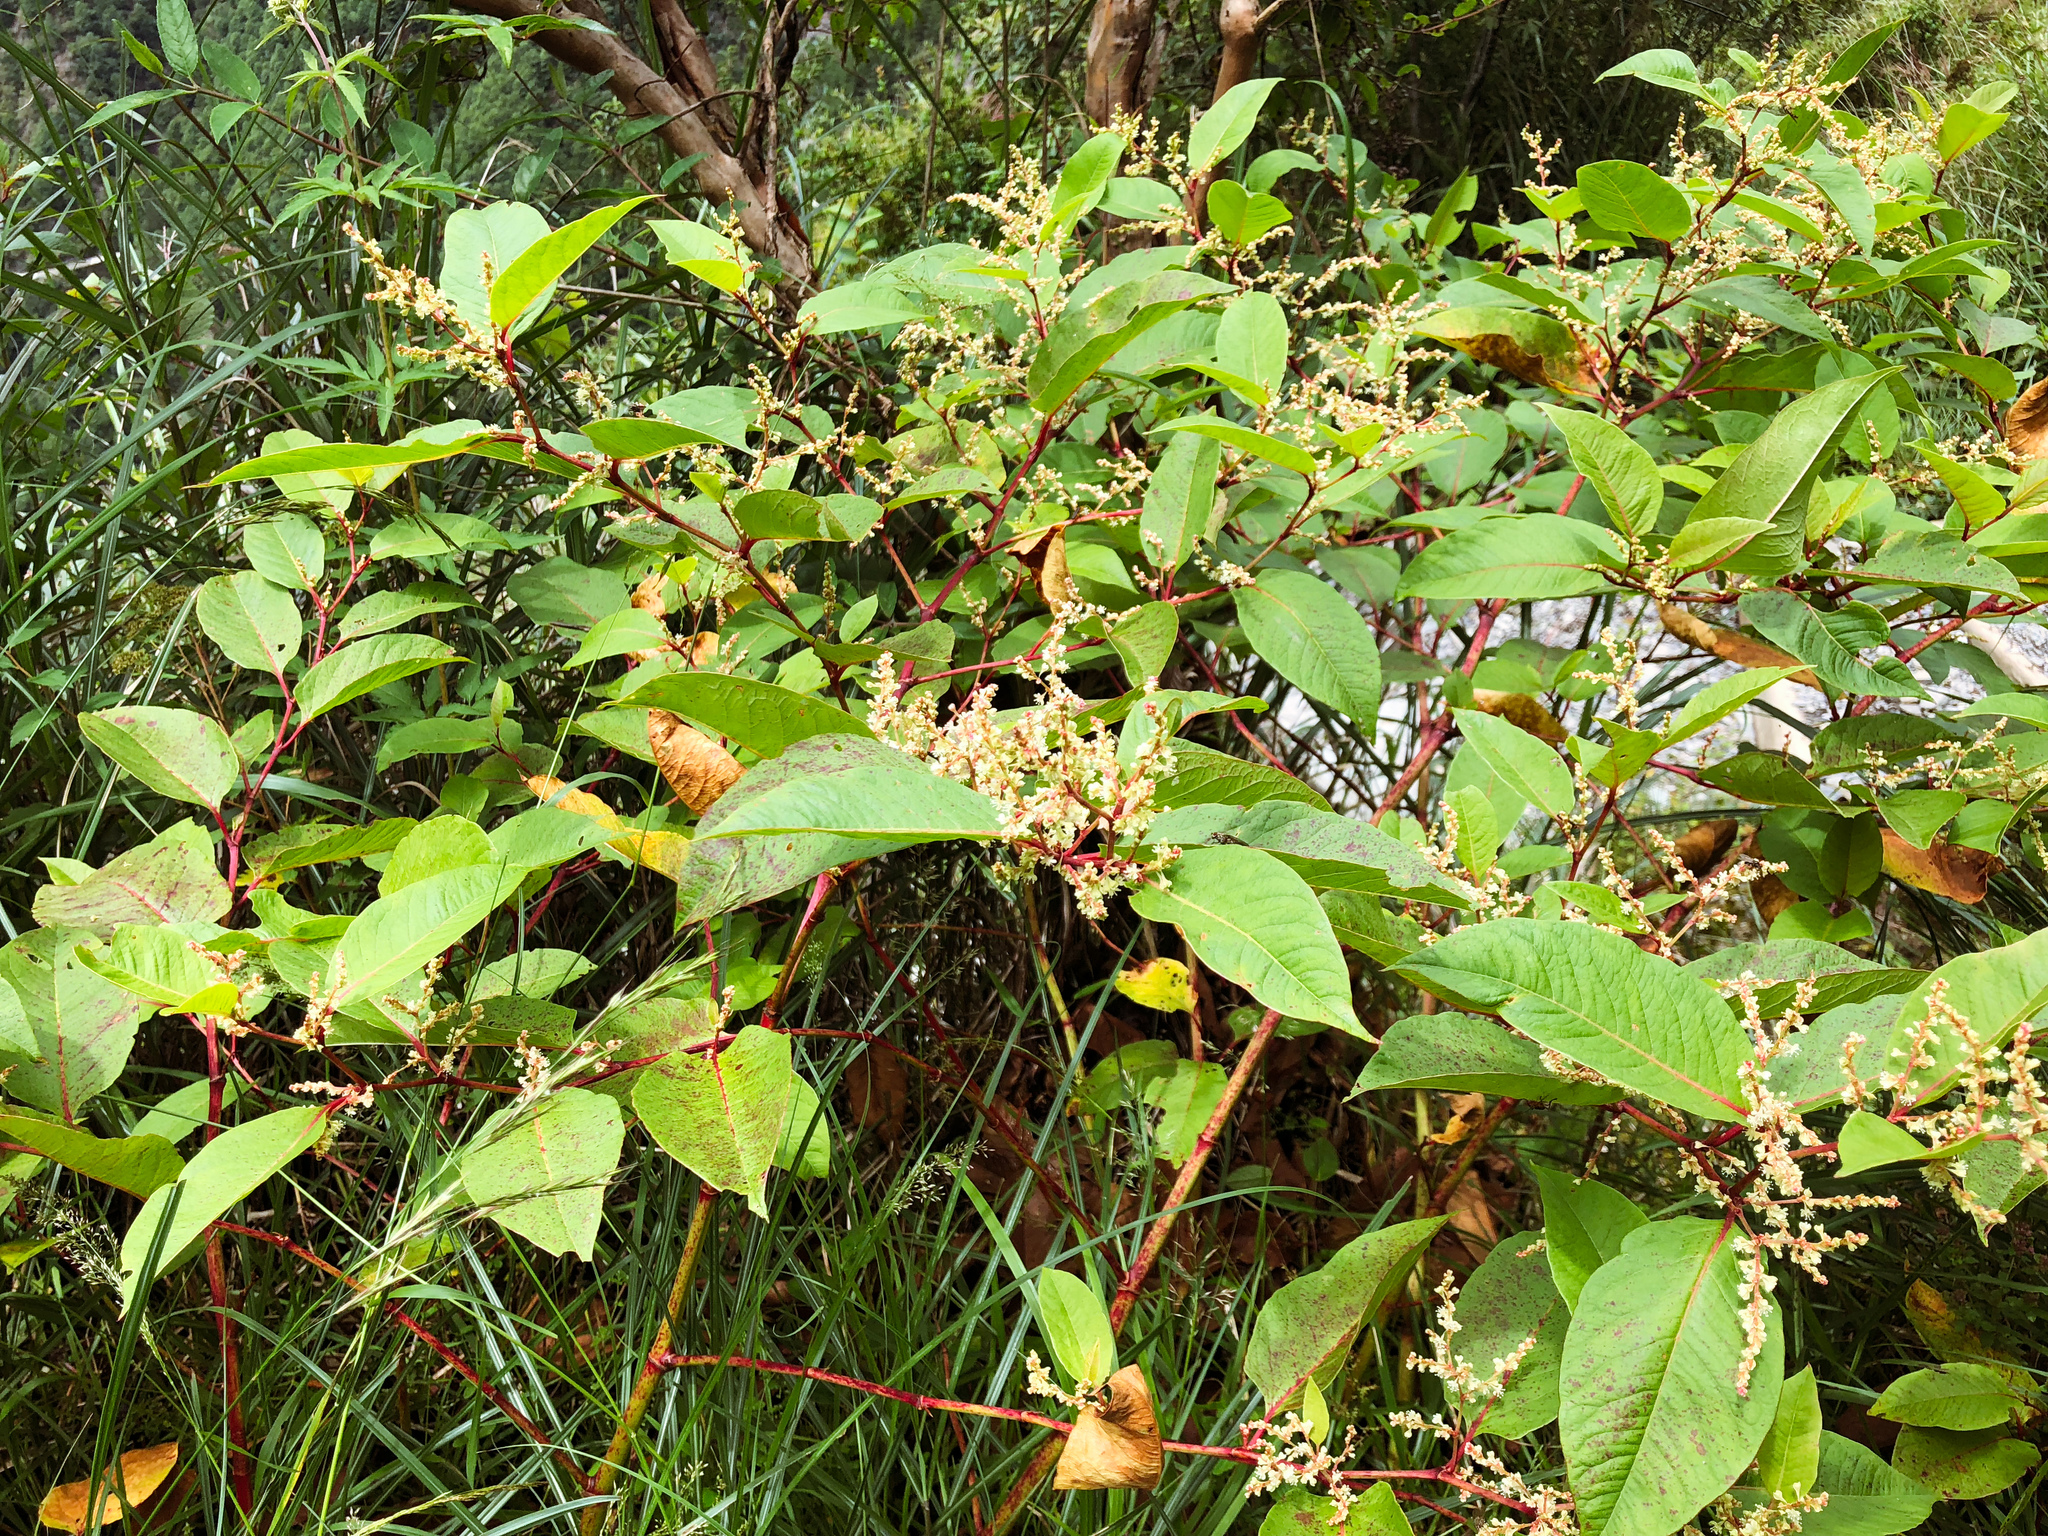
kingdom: Plantae
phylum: Tracheophyta
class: Magnoliopsida
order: Caryophyllales
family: Polygonaceae
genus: Reynoutria
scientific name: Reynoutria japonica
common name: Japanese knotweed
